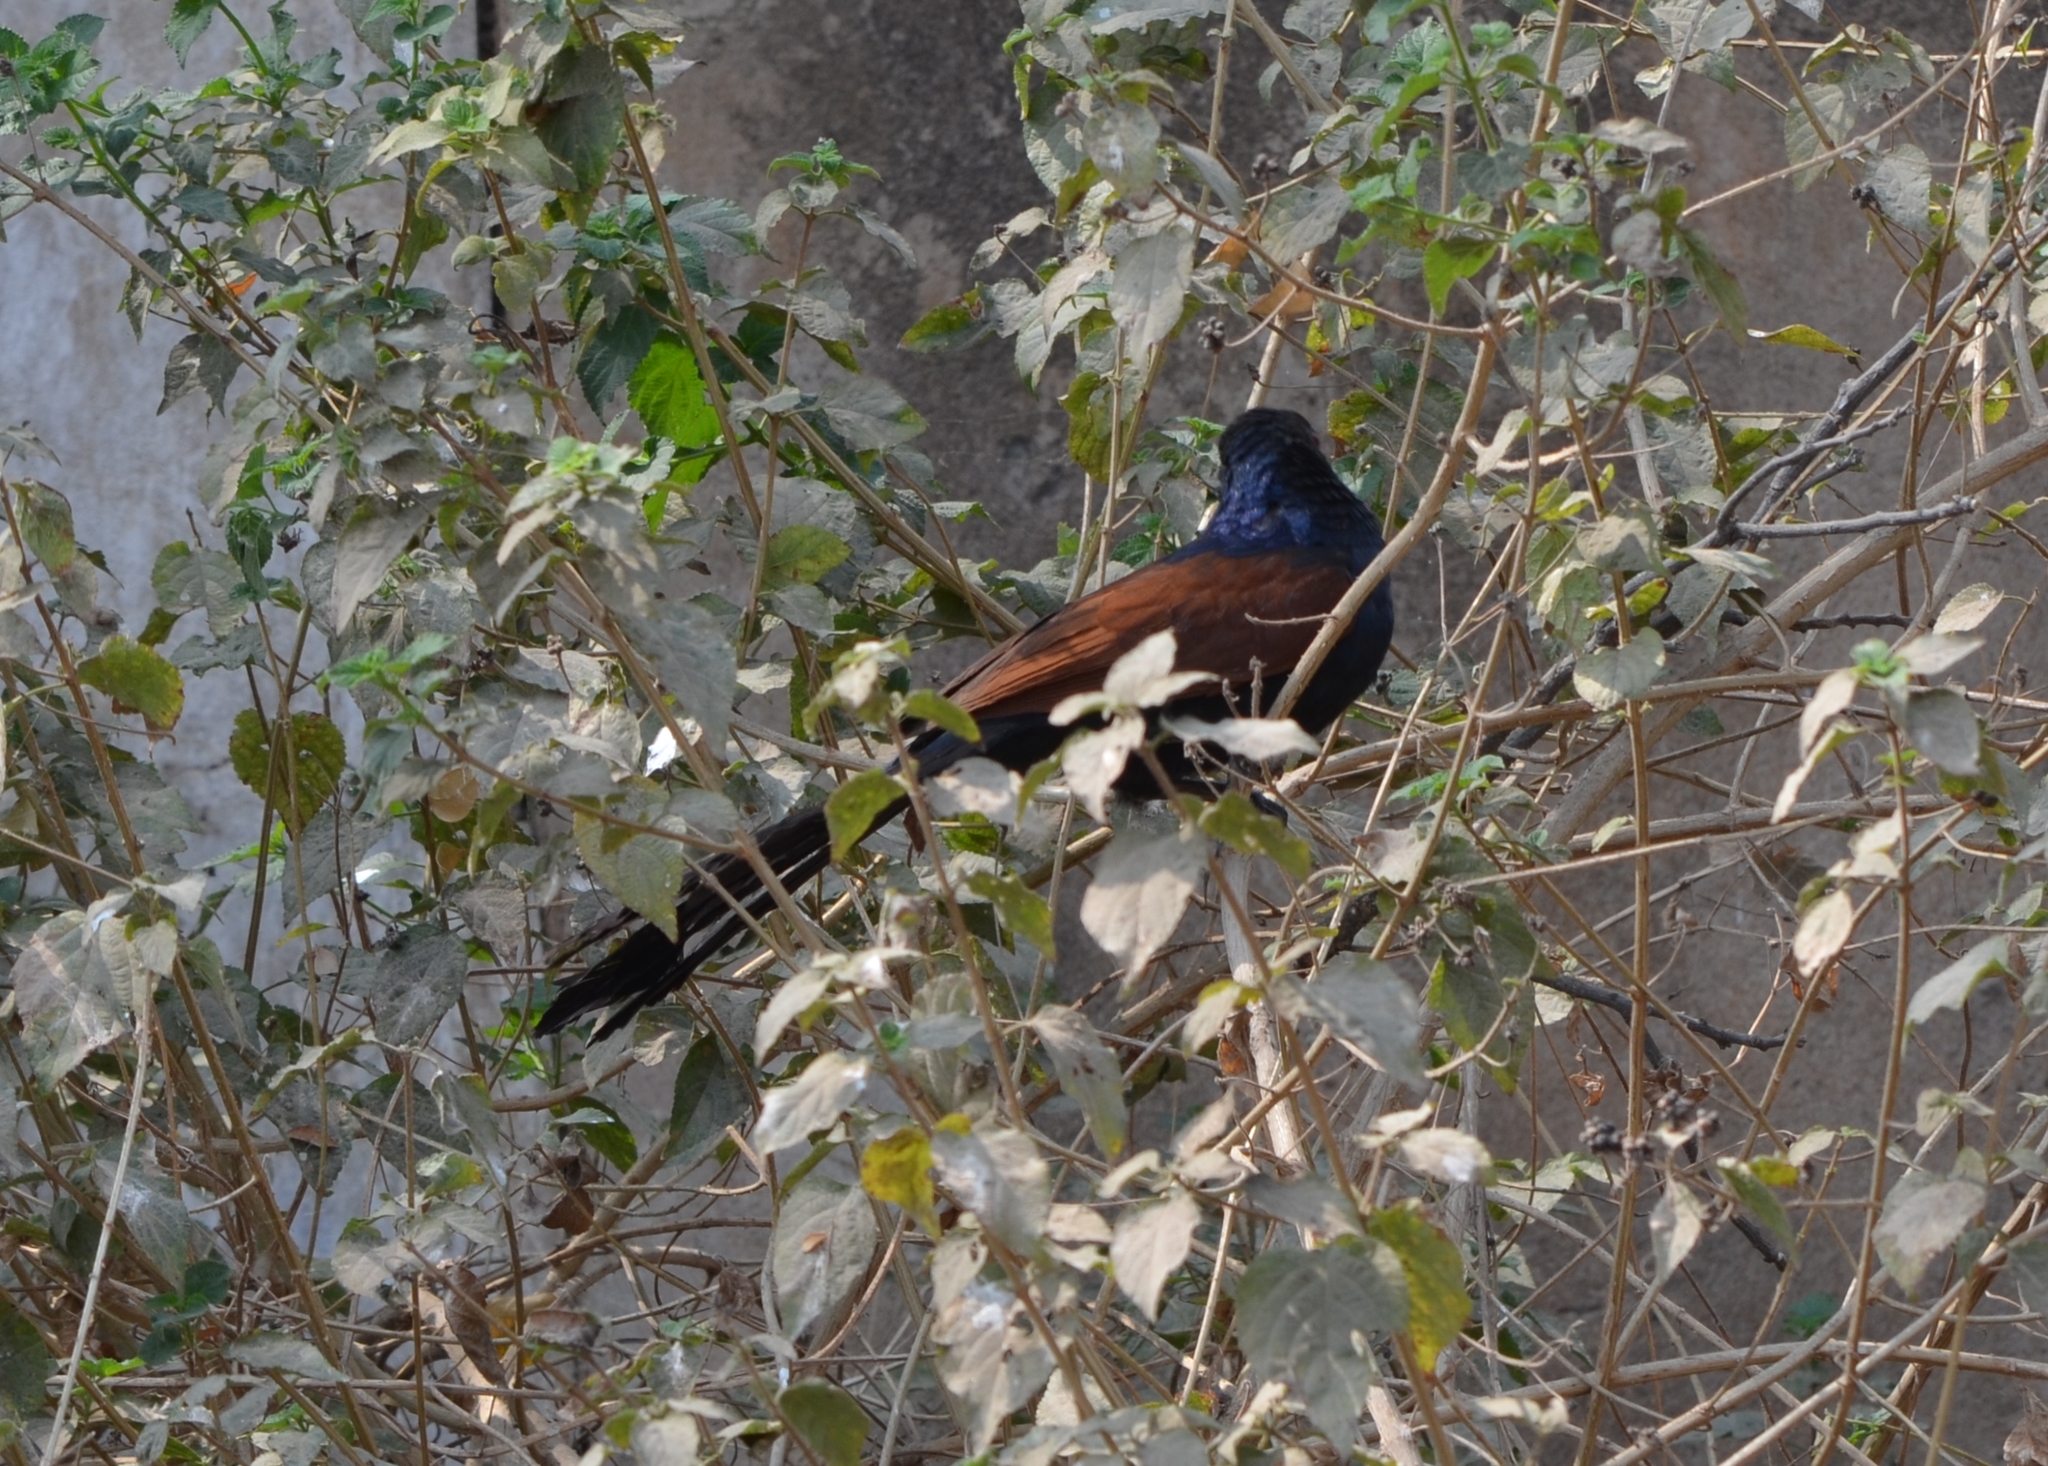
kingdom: Animalia
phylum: Chordata
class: Aves
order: Cuculiformes
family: Cuculidae
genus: Centropus
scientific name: Centropus sinensis
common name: Greater coucal
